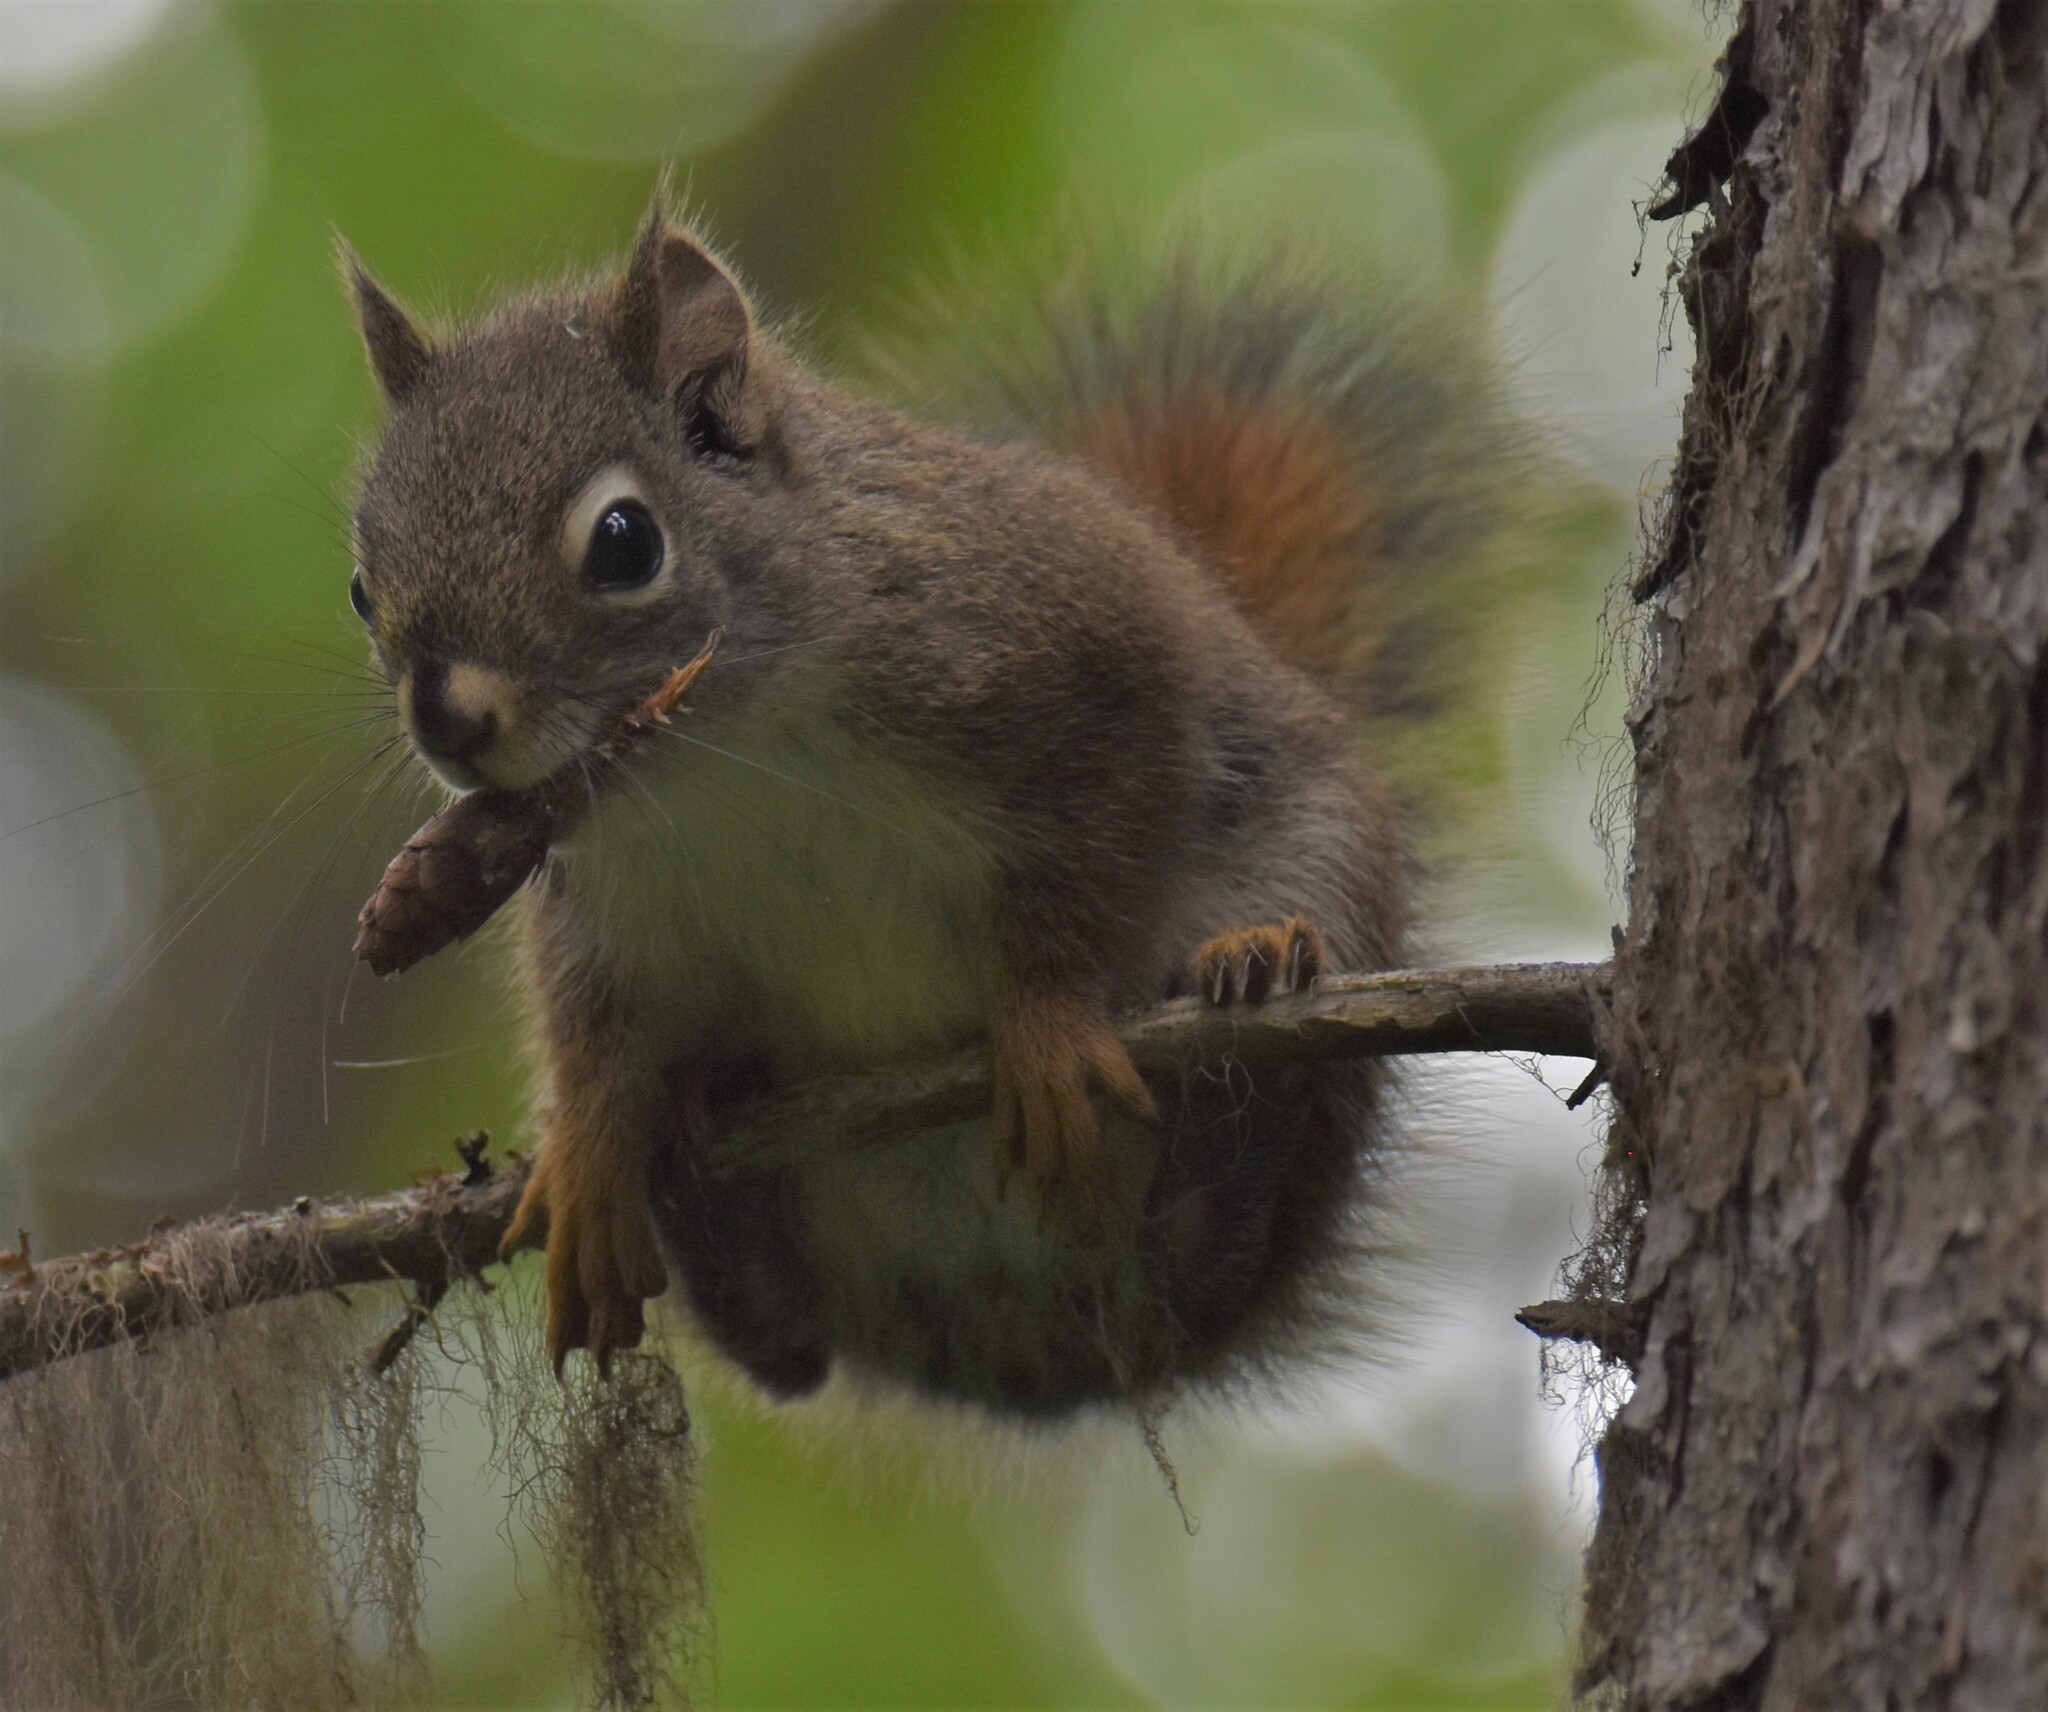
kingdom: Animalia
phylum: Chordata
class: Mammalia
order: Rodentia
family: Sciuridae
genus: Tamiasciurus
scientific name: Tamiasciurus hudsonicus
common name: Red squirrel
